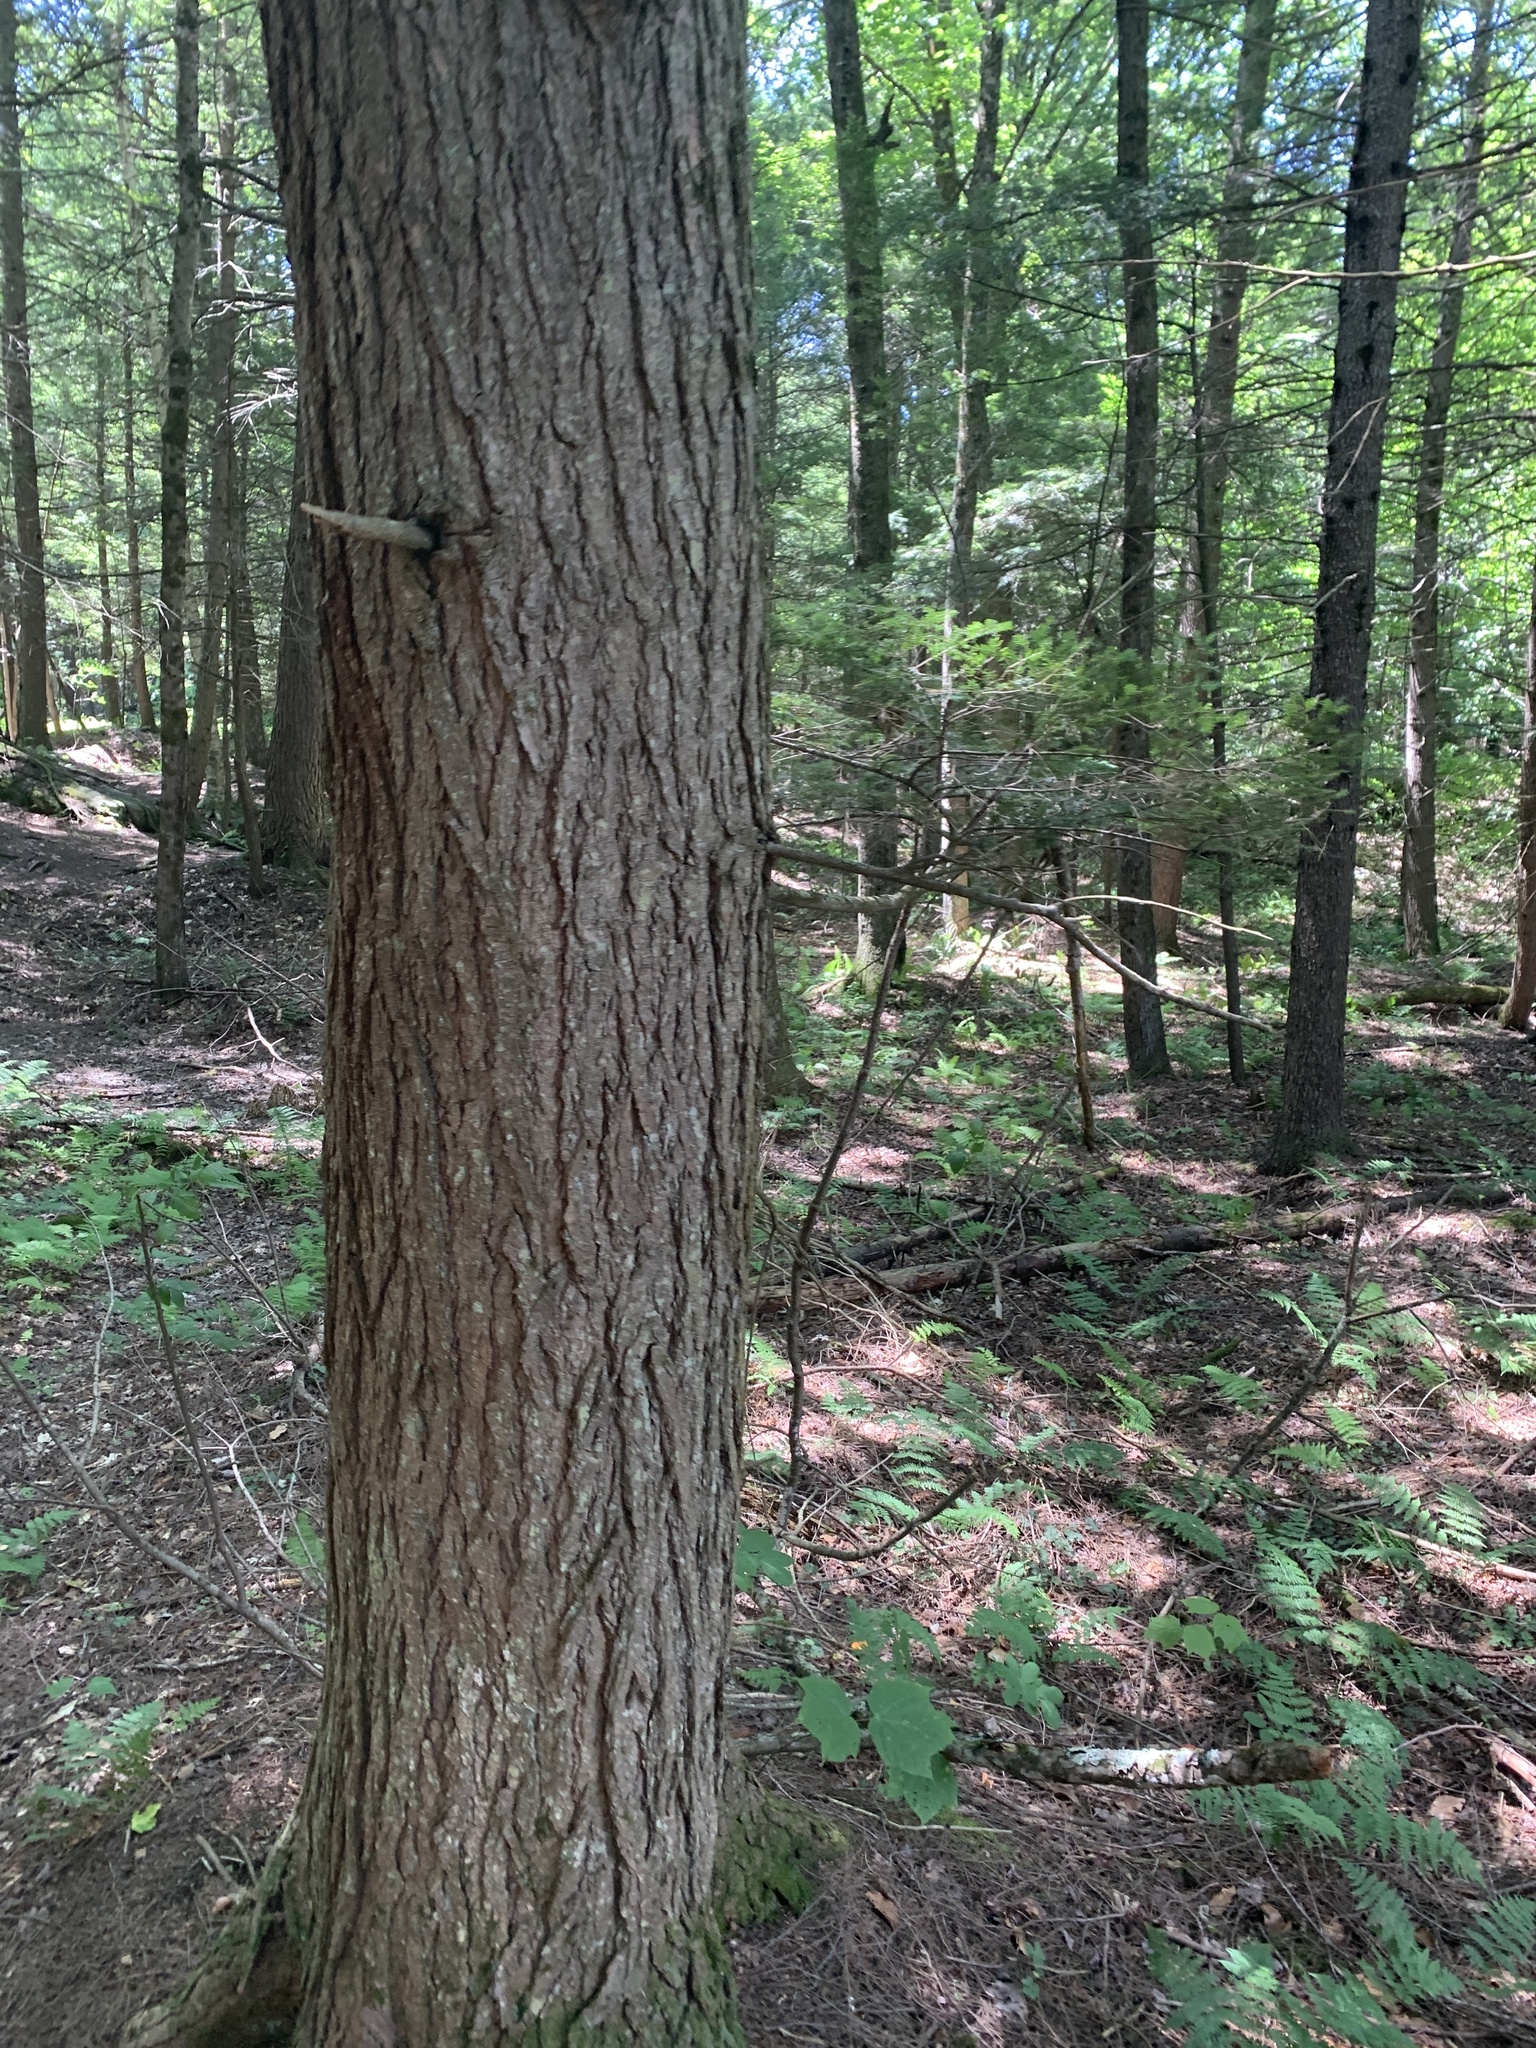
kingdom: Plantae
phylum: Tracheophyta
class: Pinopsida
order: Pinales
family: Pinaceae
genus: Tsuga
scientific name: Tsuga canadensis
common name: Eastern hemlock
